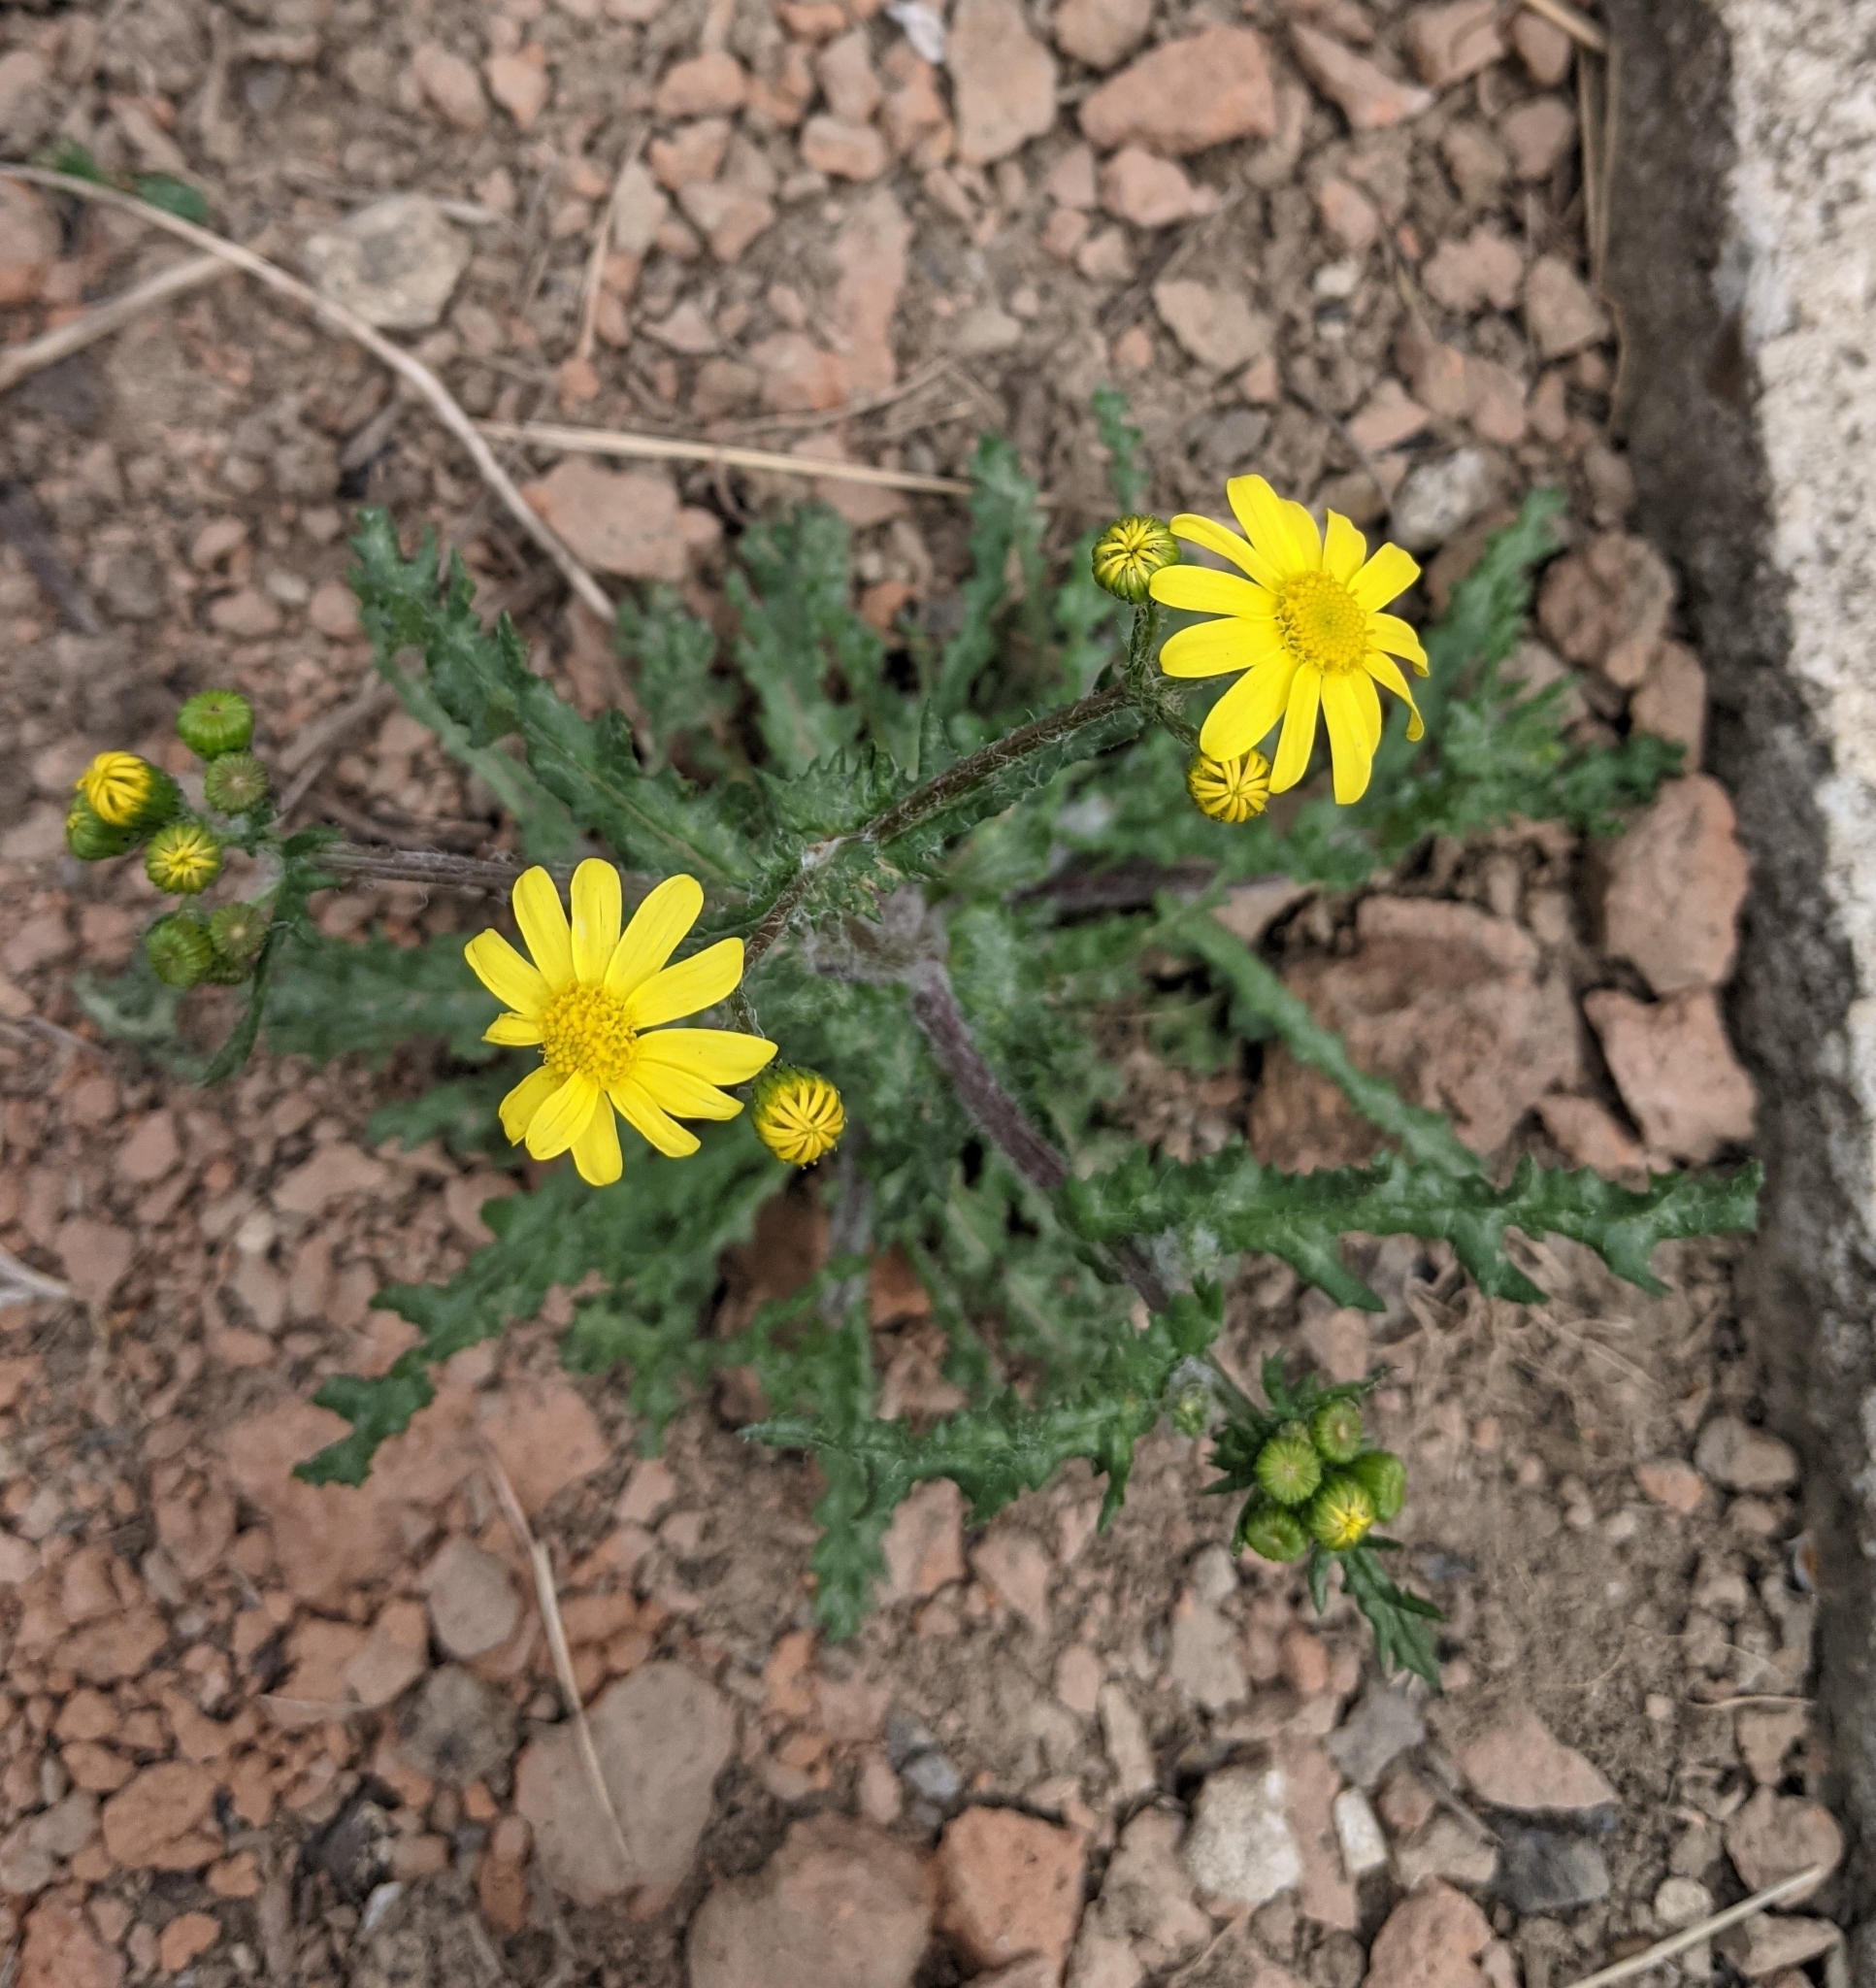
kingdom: Plantae
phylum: Tracheophyta
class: Magnoliopsida
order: Asterales
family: Asteraceae
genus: Senecio
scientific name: Senecio vernalis
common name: Eastern groundsel
